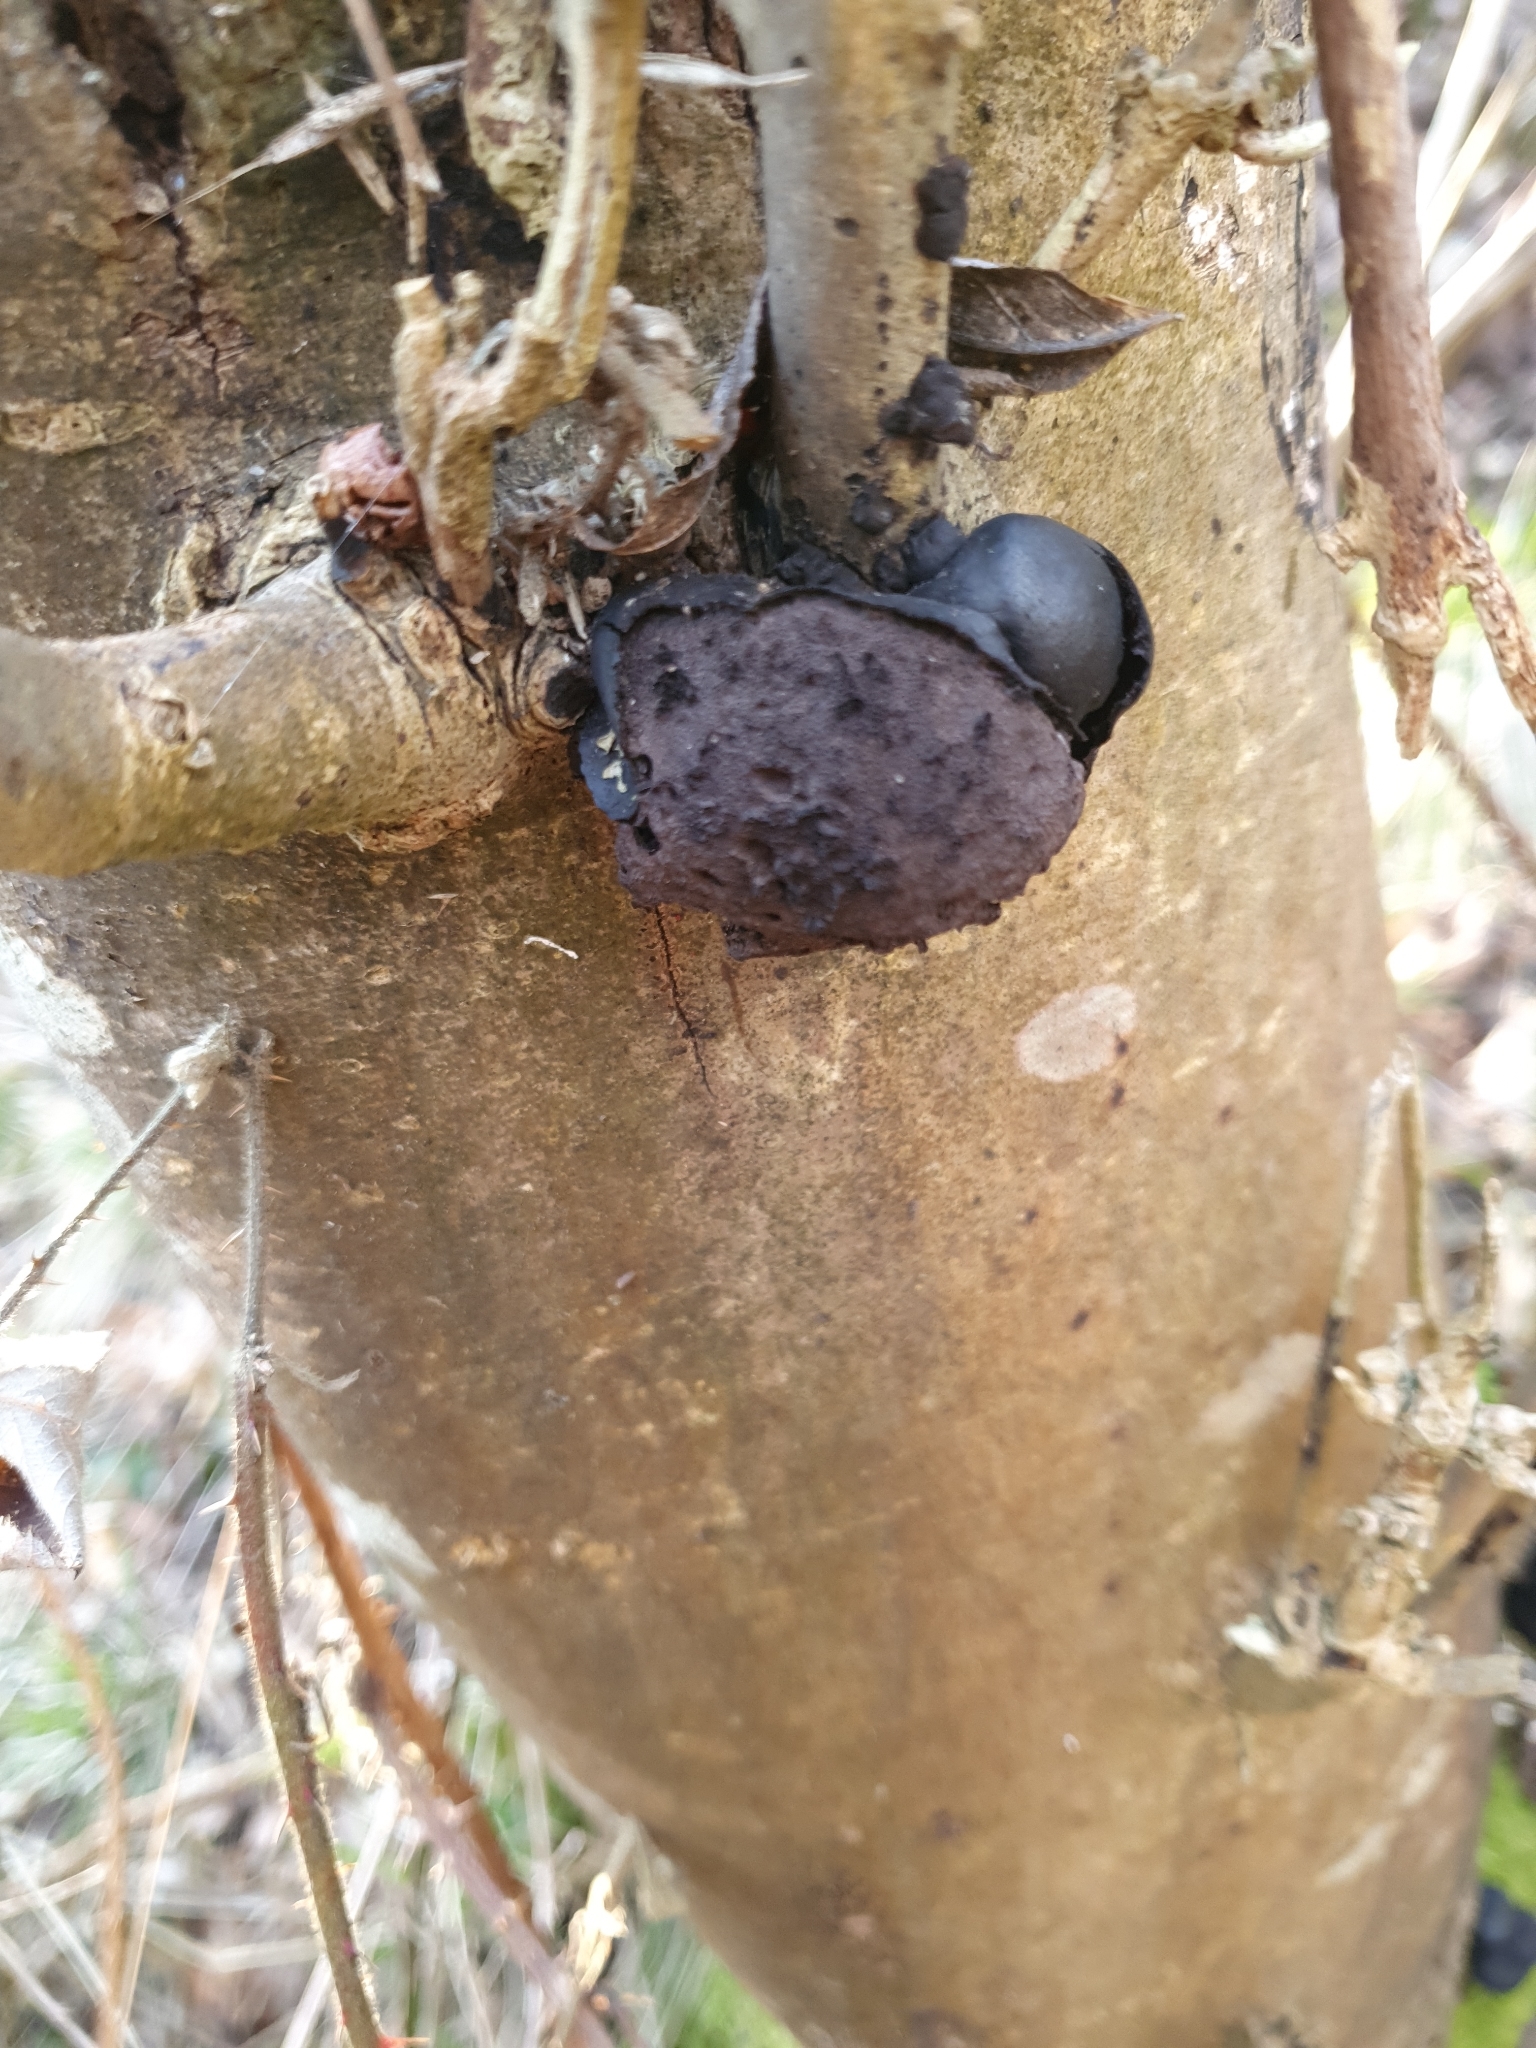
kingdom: Fungi
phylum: Ascomycota
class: Sordariomycetes
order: Xylariales
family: Hypoxylaceae
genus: Daldinia
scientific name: Daldinia concentrica
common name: Cramp balls
